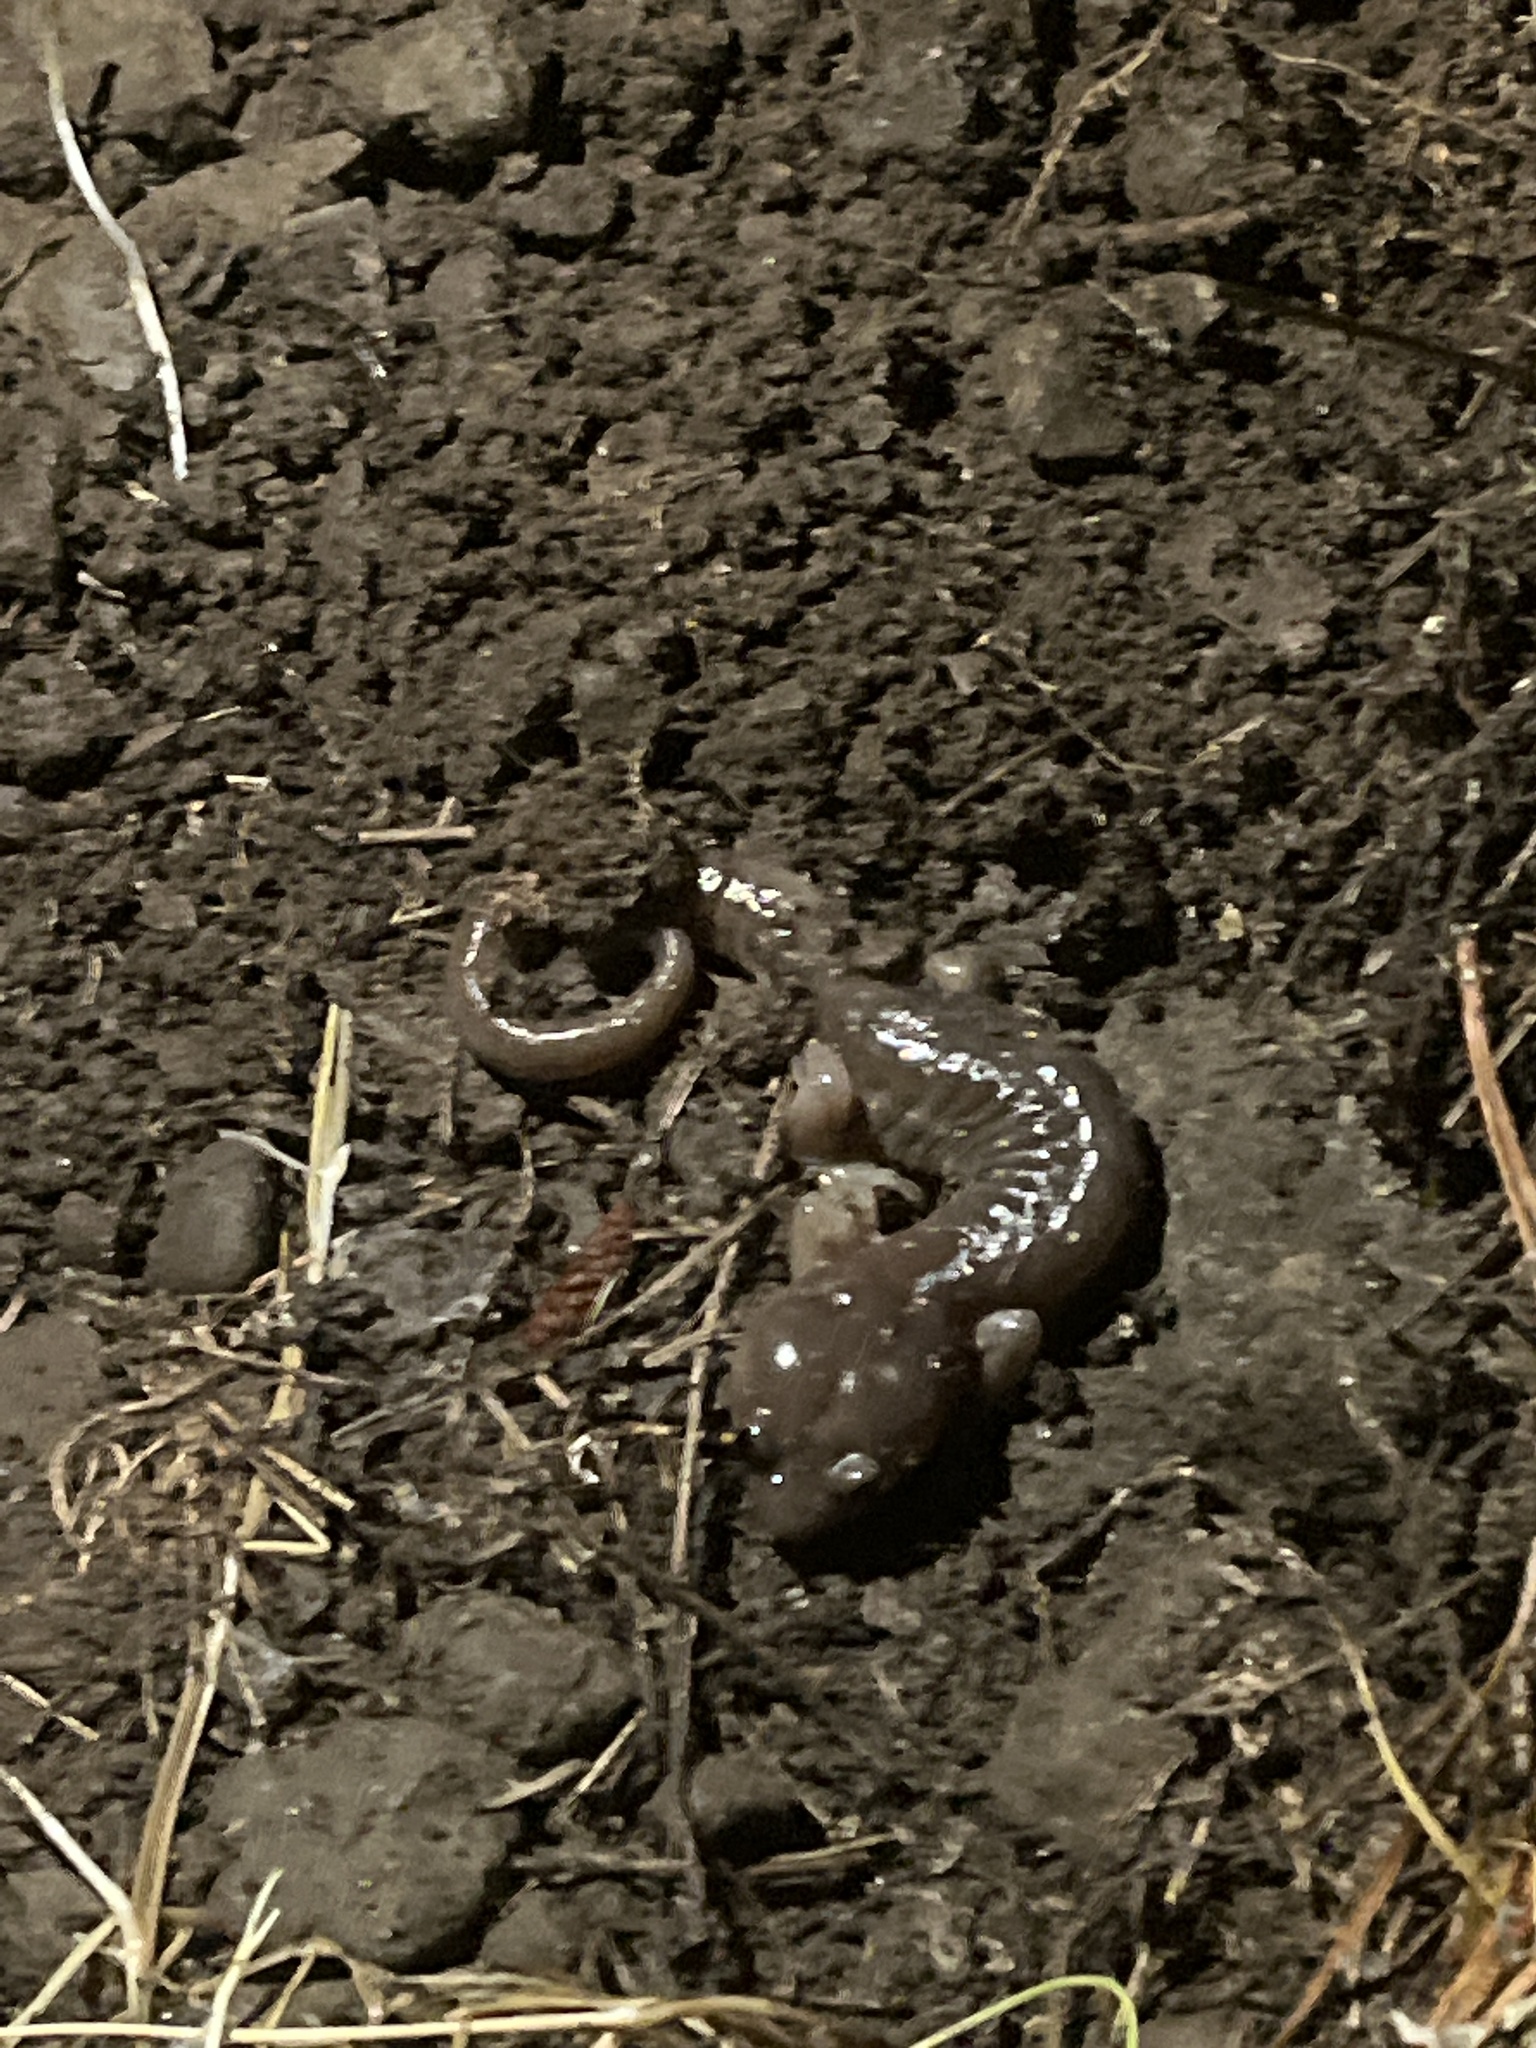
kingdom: Animalia
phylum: Chordata
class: Amphibia
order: Caudata
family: Plethodontidae
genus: Aneides
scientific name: Aneides lugubris
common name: Arboreal salamander
